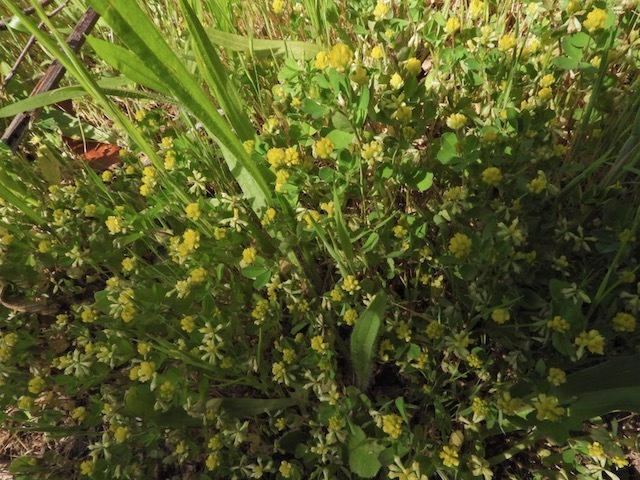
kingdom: Plantae
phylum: Tracheophyta
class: Magnoliopsida
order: Fabales
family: Fabaceae
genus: Trifolium
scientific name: Trifolium dubium
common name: Suckling clover
